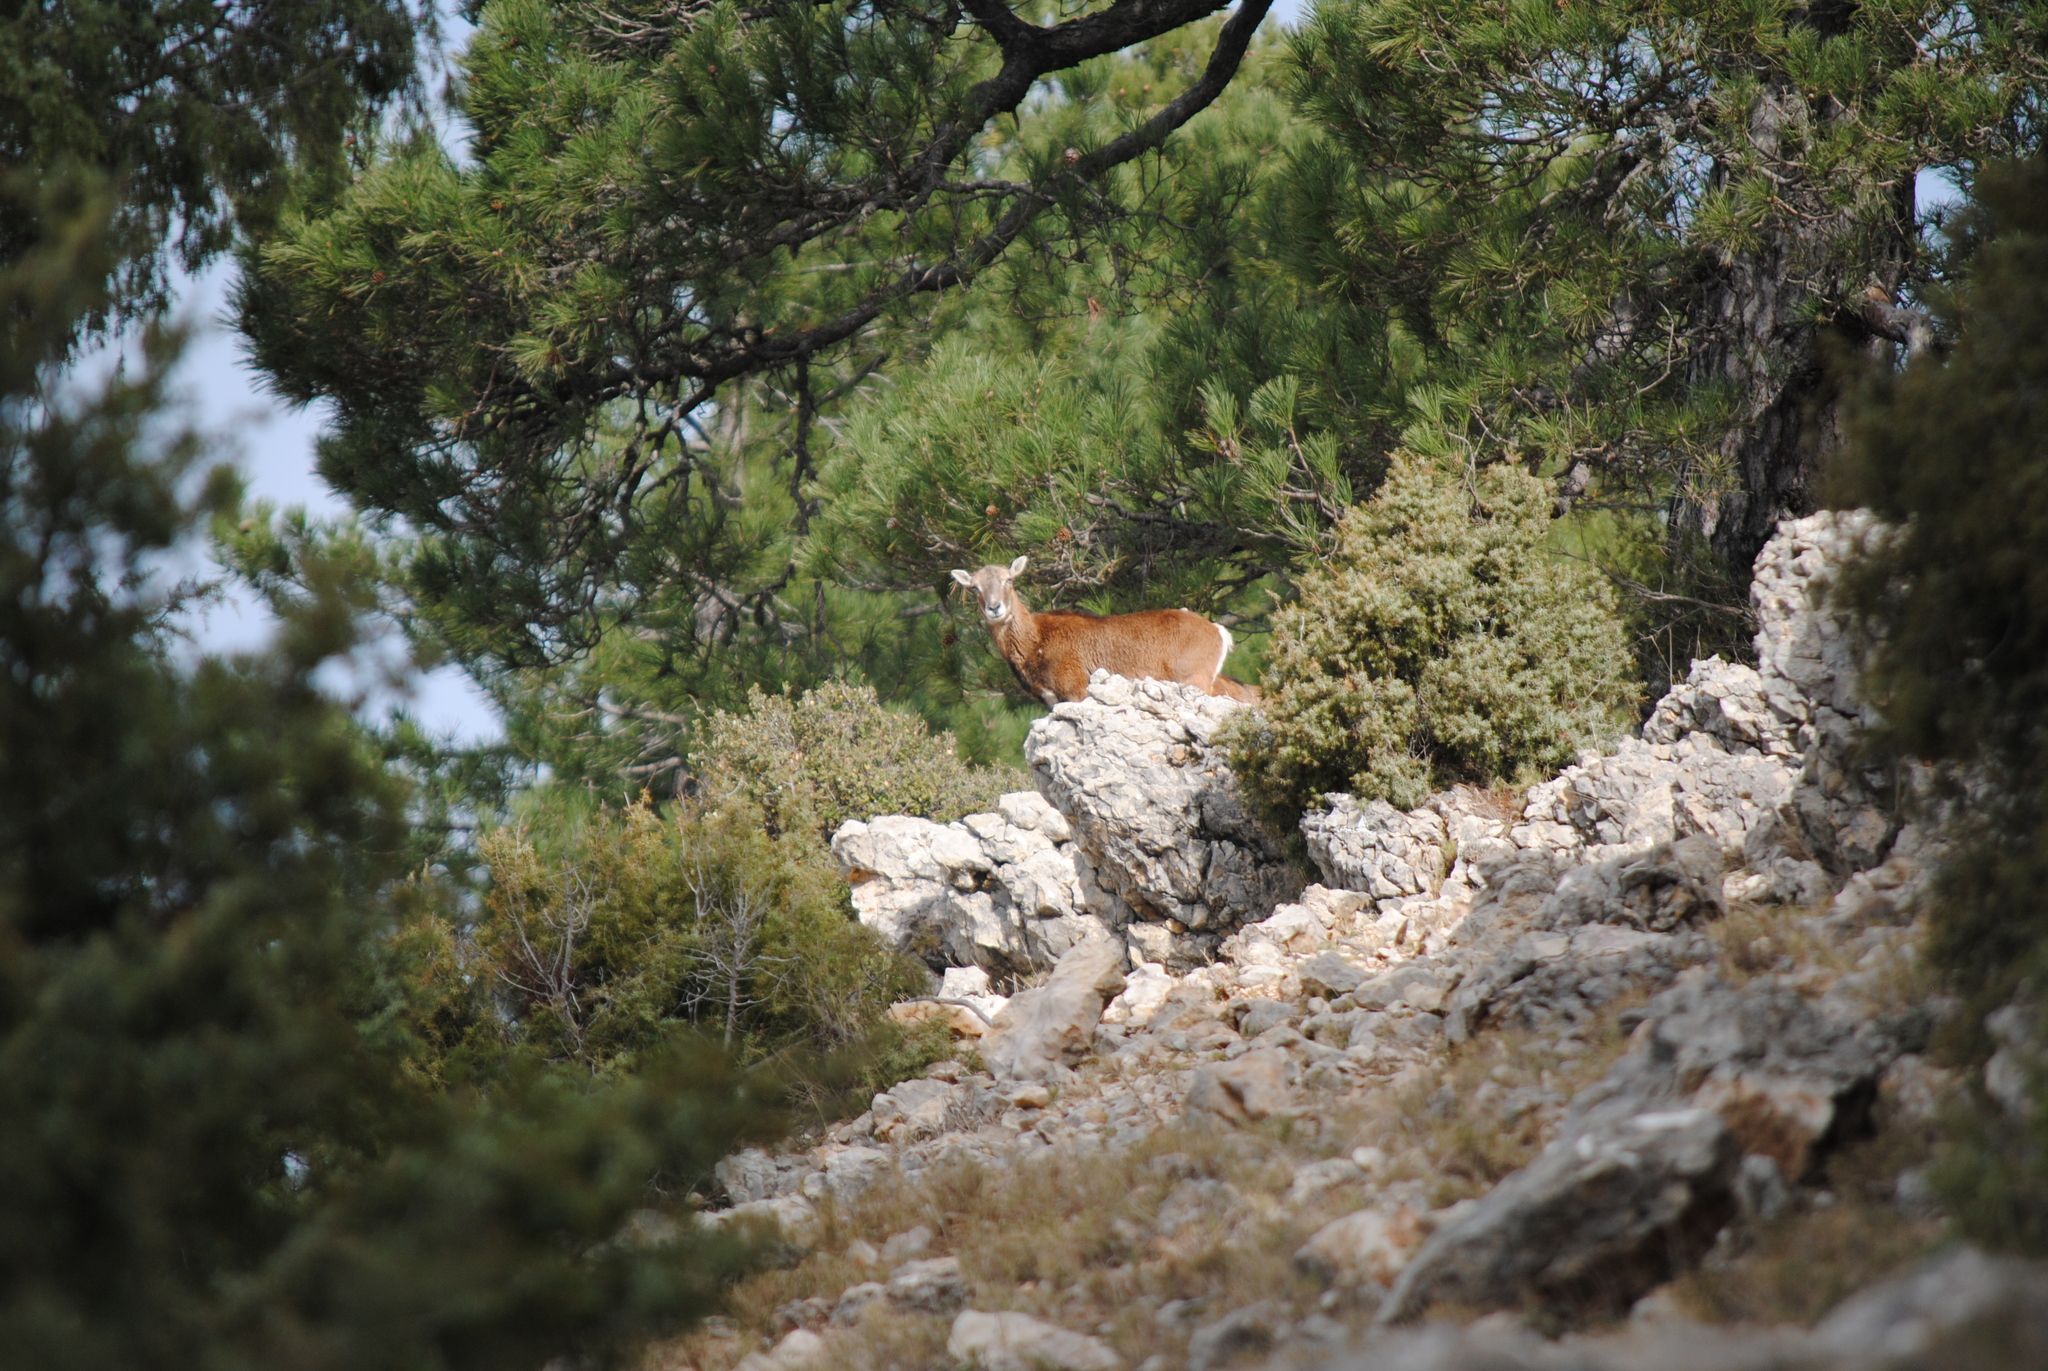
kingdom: Animalia
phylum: Chordata
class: Mammalia
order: Artiodactyla
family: Bovidae
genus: Ovis
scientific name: Ovis aries
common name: Domestic sheep
